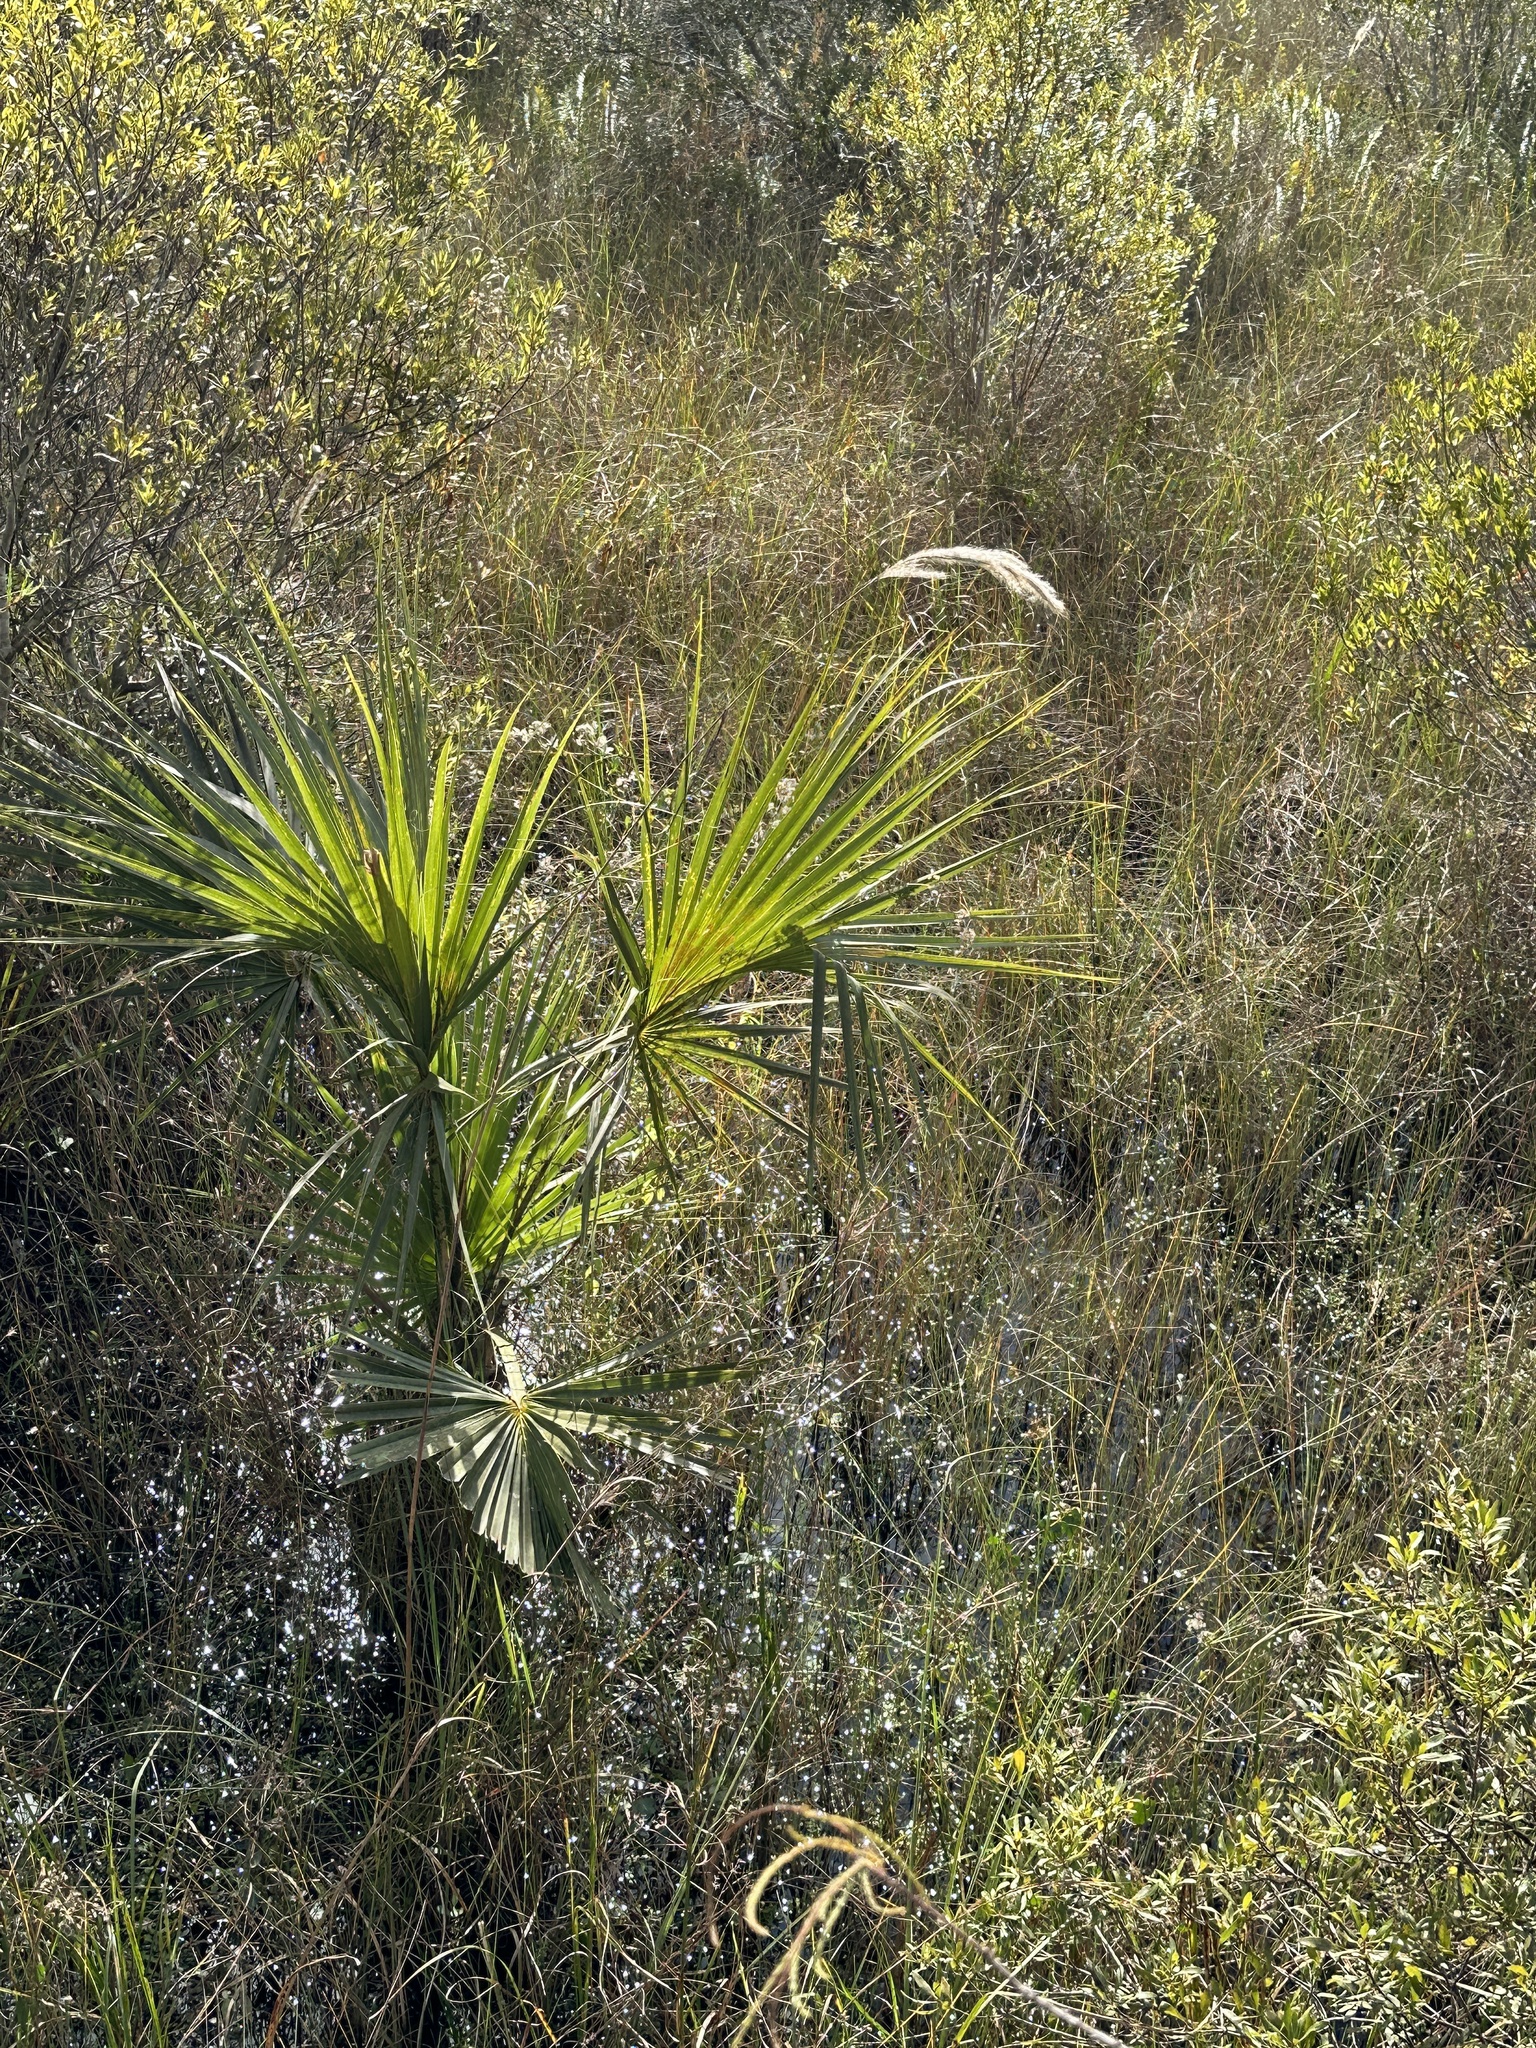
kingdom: Plantae
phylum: Tracheophyta
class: Liliopsida
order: Poales
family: Poaceae
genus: Erianthus
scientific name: Erianthus giganteus
